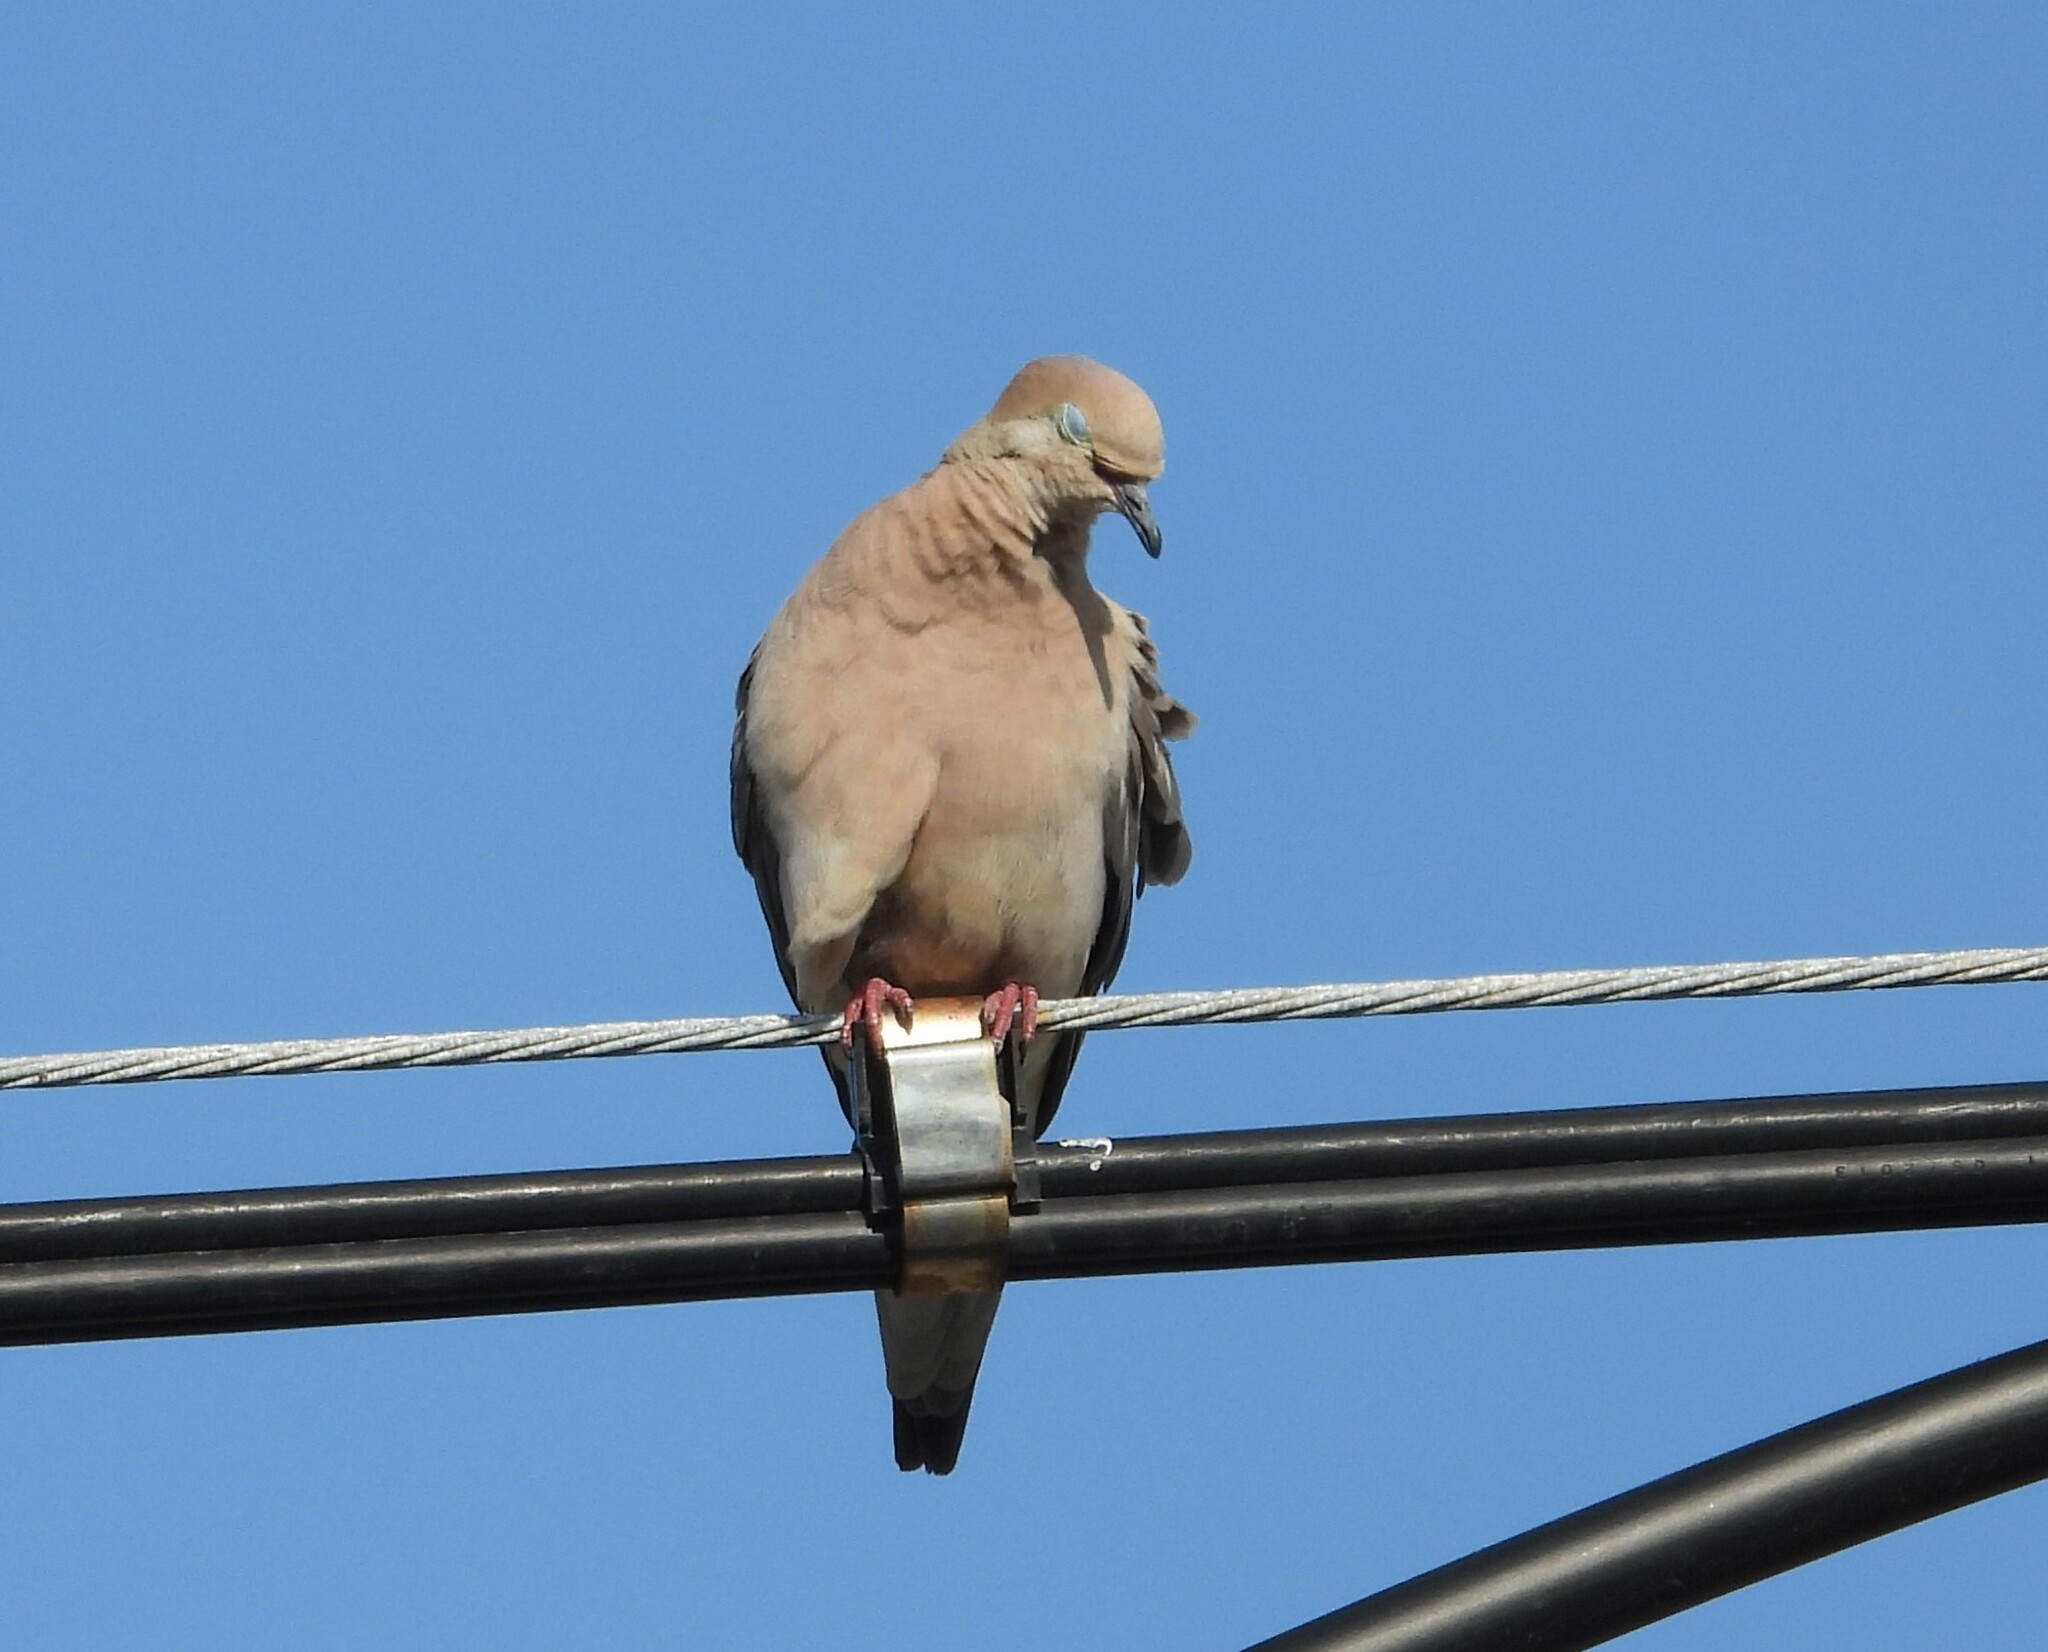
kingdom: Animalia
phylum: Chordata
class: Aves
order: Columbiformes
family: Columbidae
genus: Zenaida
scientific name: Zenaida macroura
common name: Mourning dove
